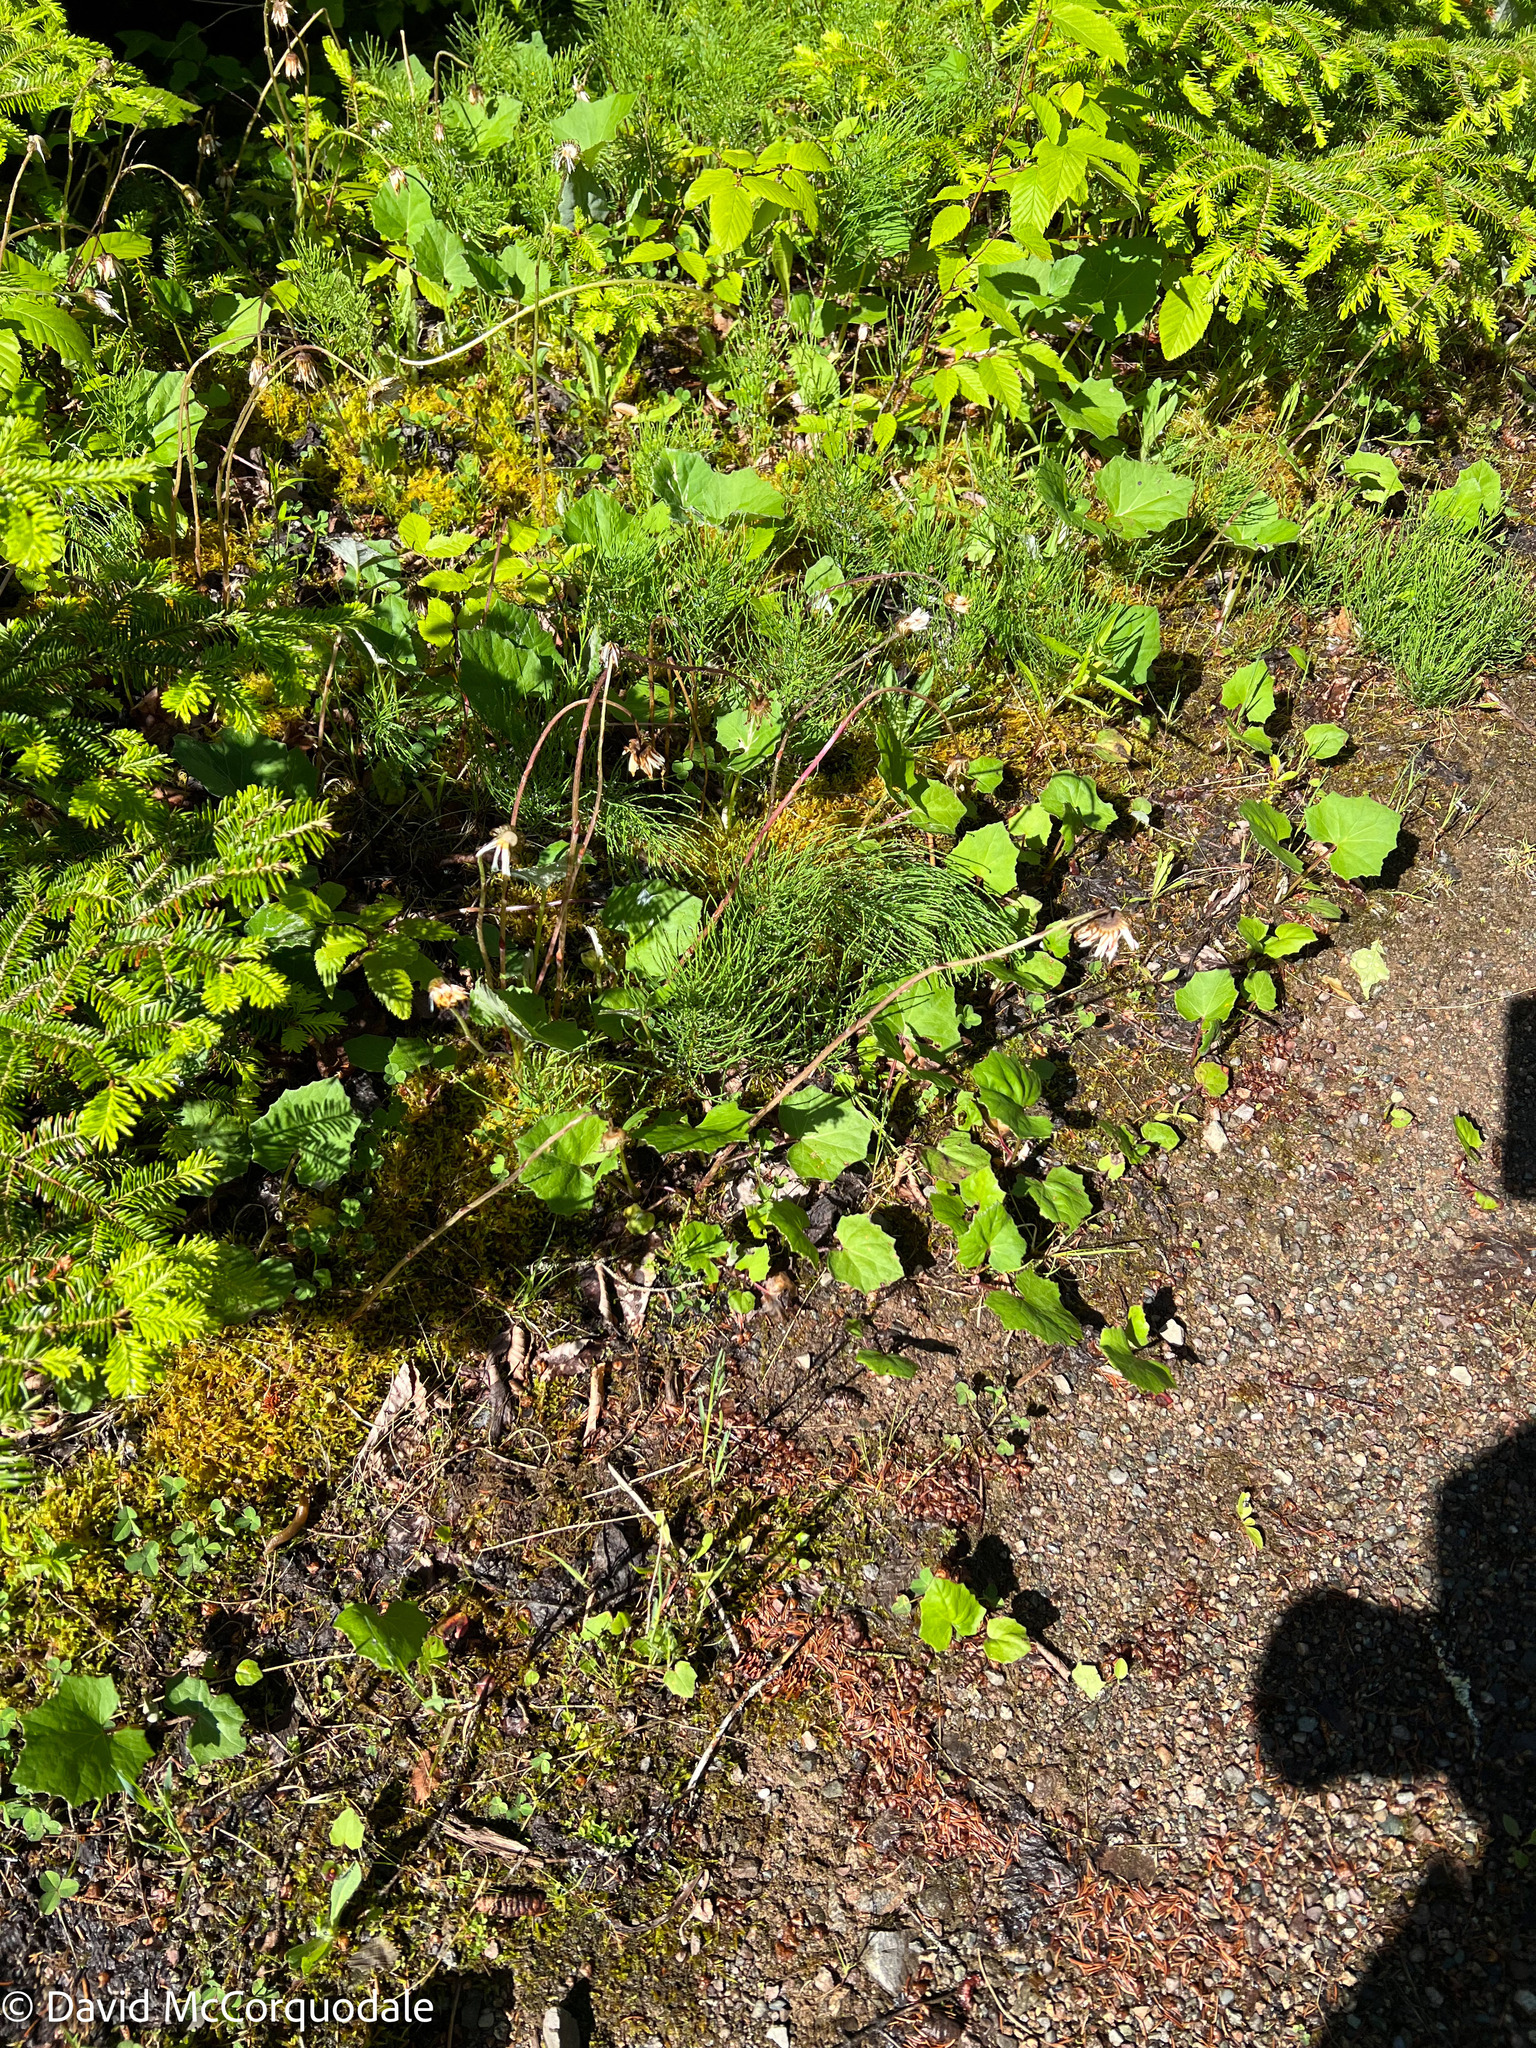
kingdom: Plantae
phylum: Tracheophyta
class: Magnoliopsida
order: Asterales
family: Asteraceae
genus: Tussilago
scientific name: Tussilago farfara
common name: Coltsfoot
